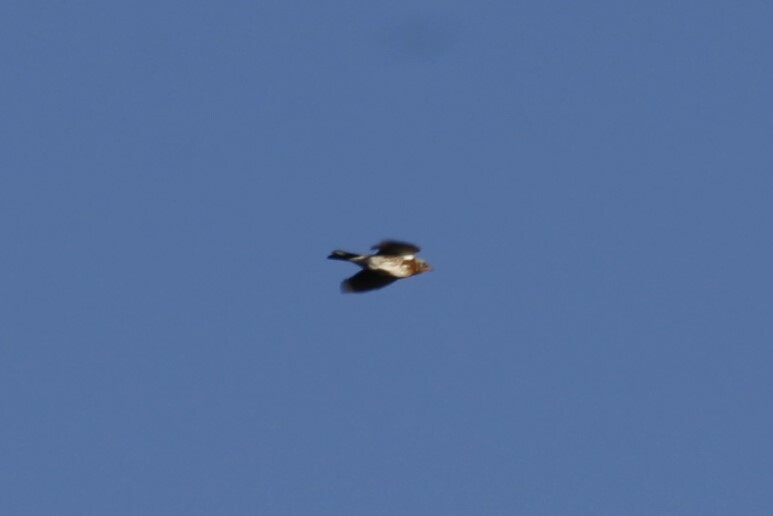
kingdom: Animalia
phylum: Chordata
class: Aves
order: Passeriformes
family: Turdidae
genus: Turdus
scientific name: Turdus pilaris
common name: Fieldfare
